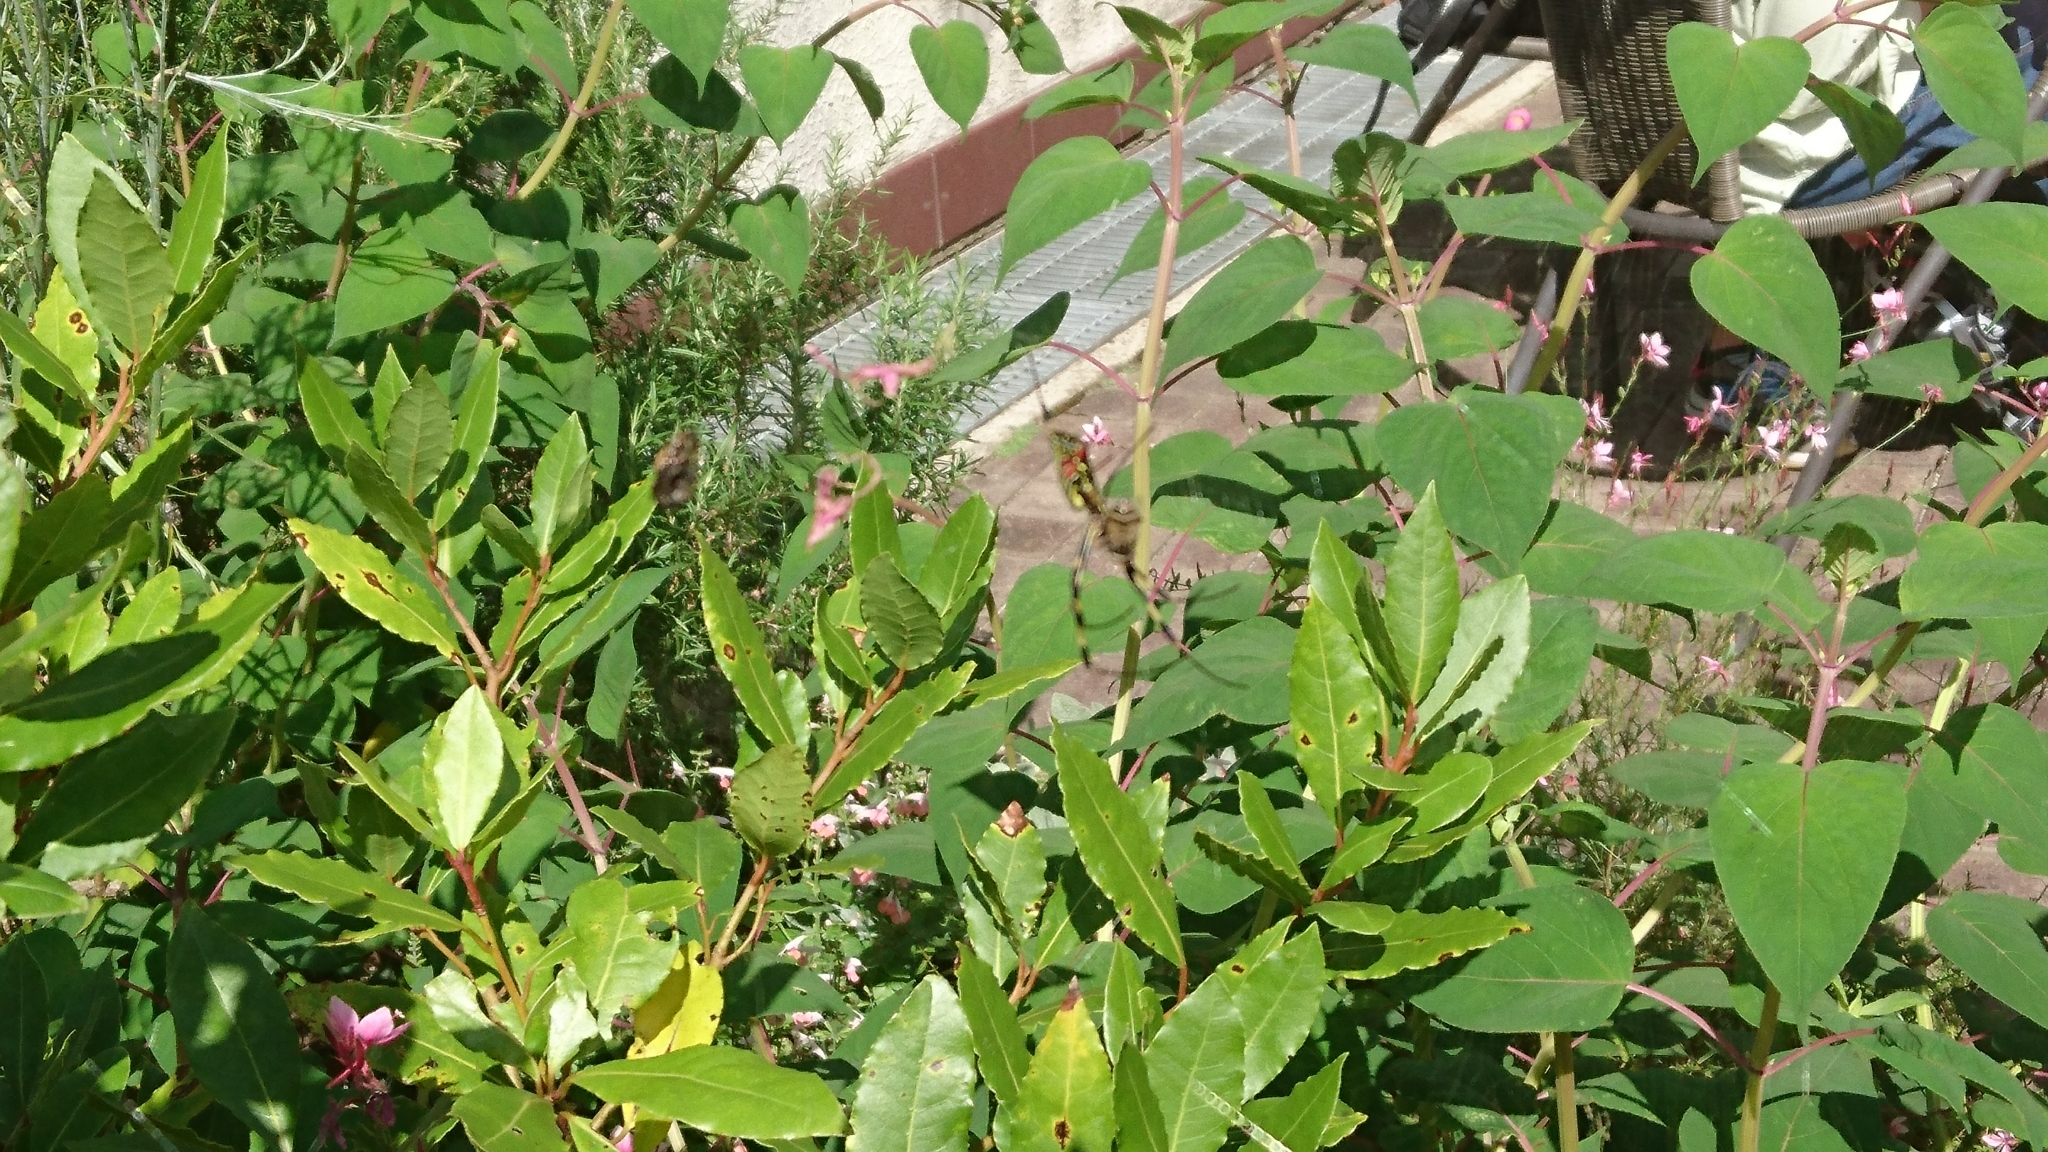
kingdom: Animalia
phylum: Arthropoda
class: Arachnida
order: Araneae
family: Araneidae
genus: Trichonephila
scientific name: Trichonephila clavata
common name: Jorō spider
